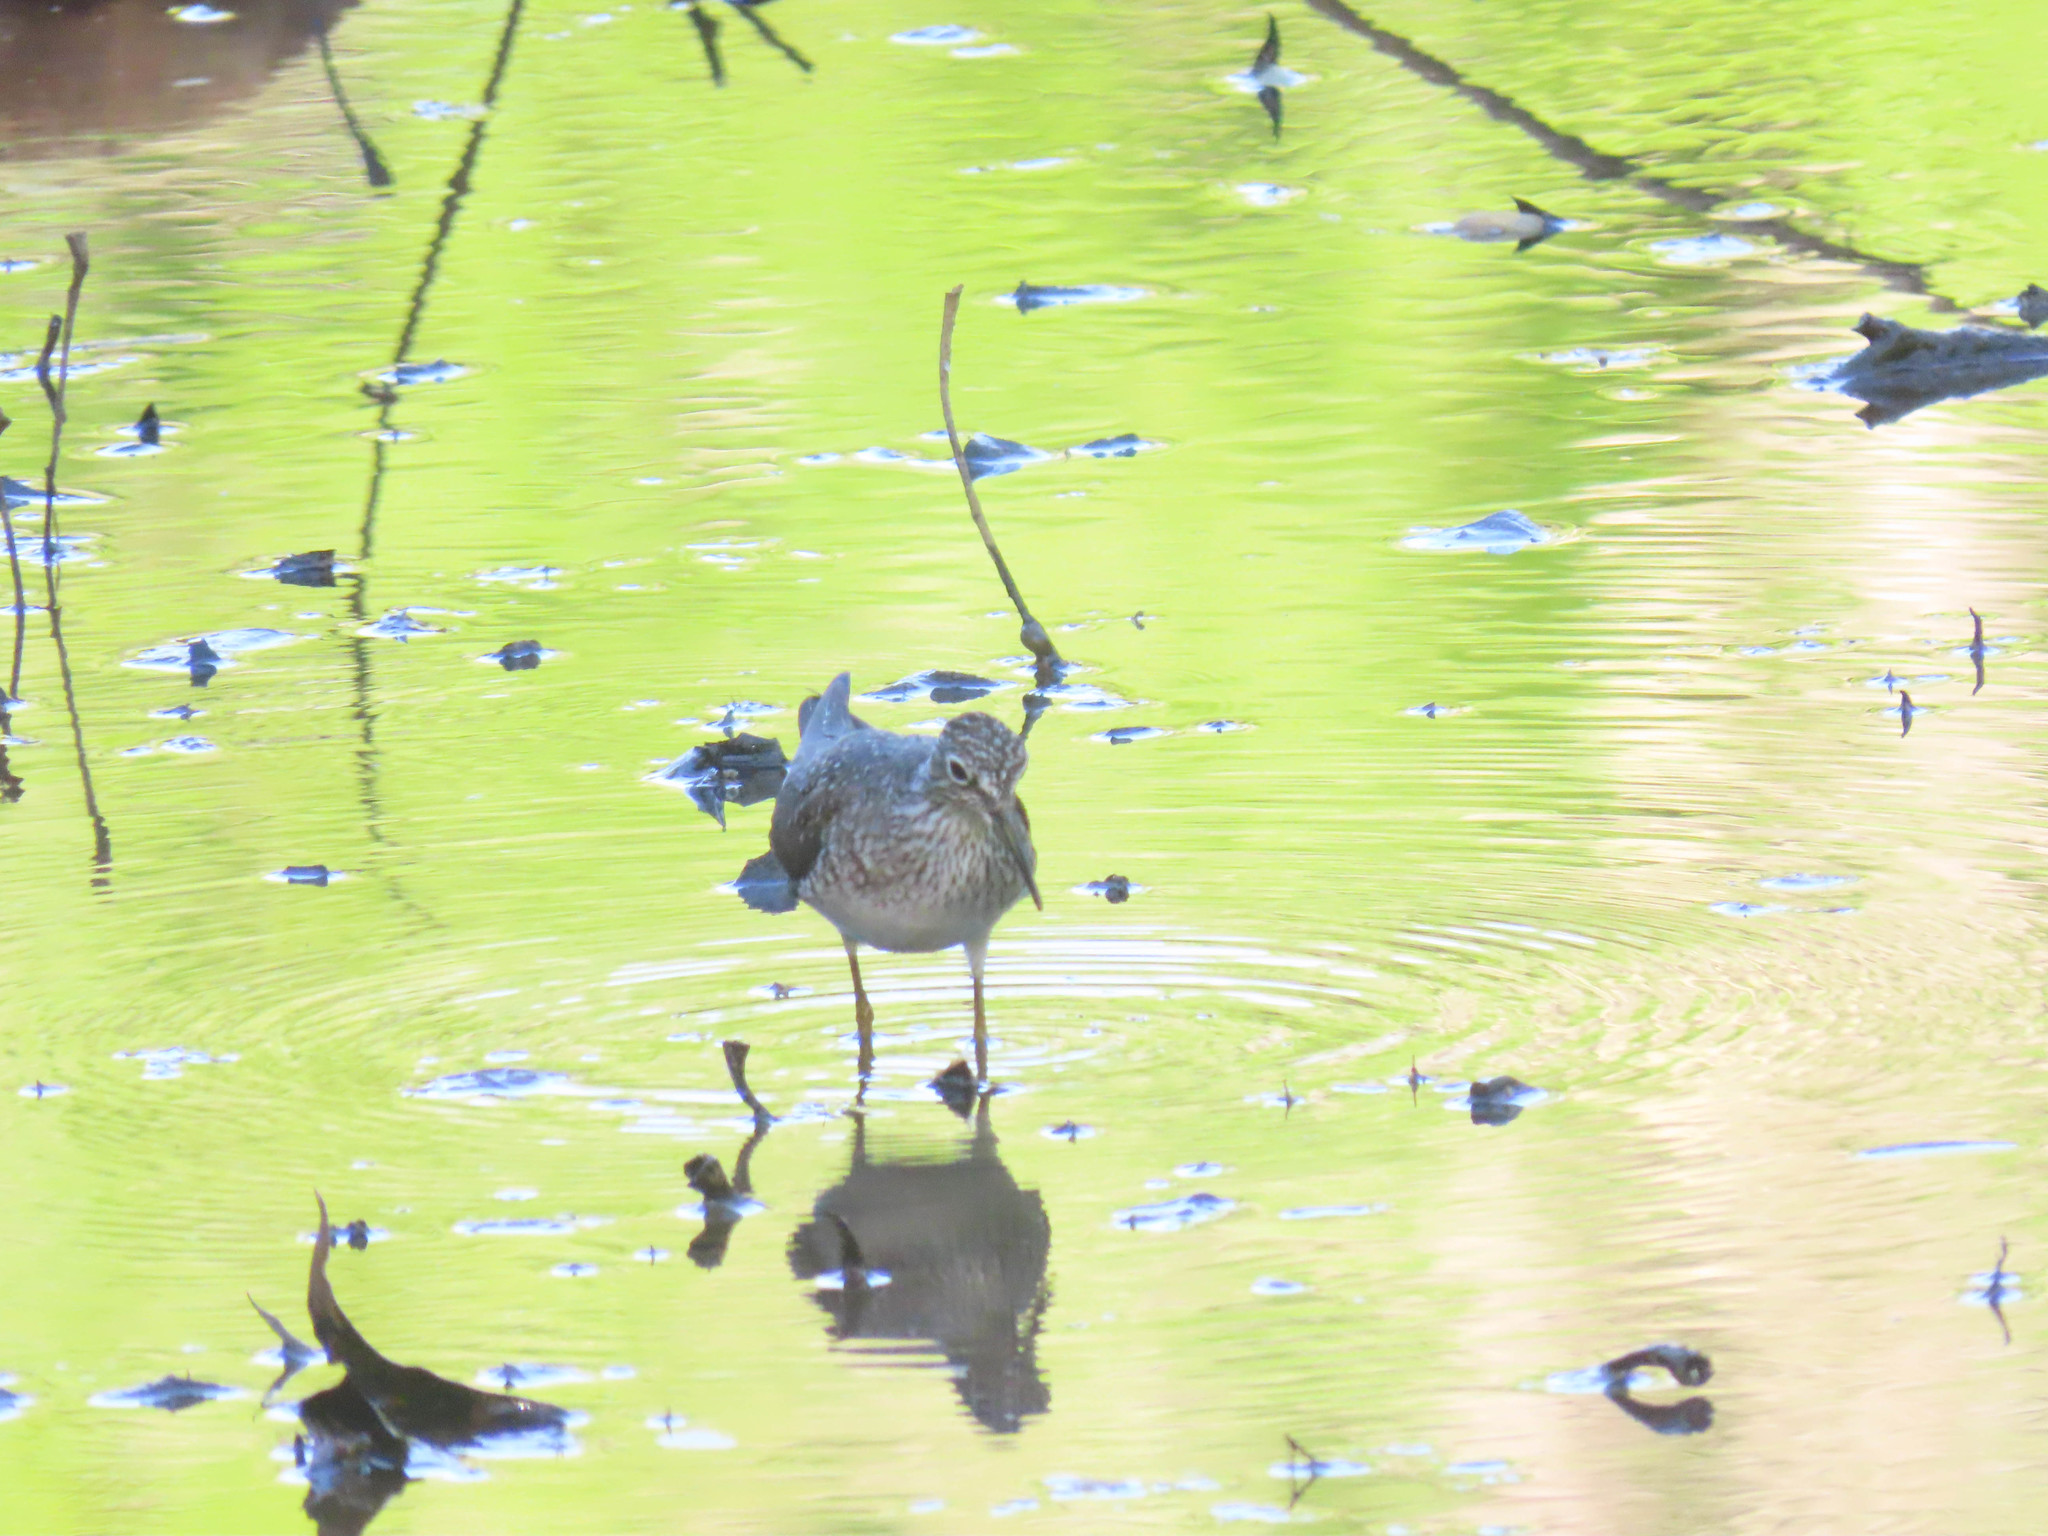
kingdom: Animalia
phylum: Chordata
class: Aves
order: Charadriiformes
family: Scolopacidae
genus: Tringa
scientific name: Tringa solitaria
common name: Solitary sandpiper
